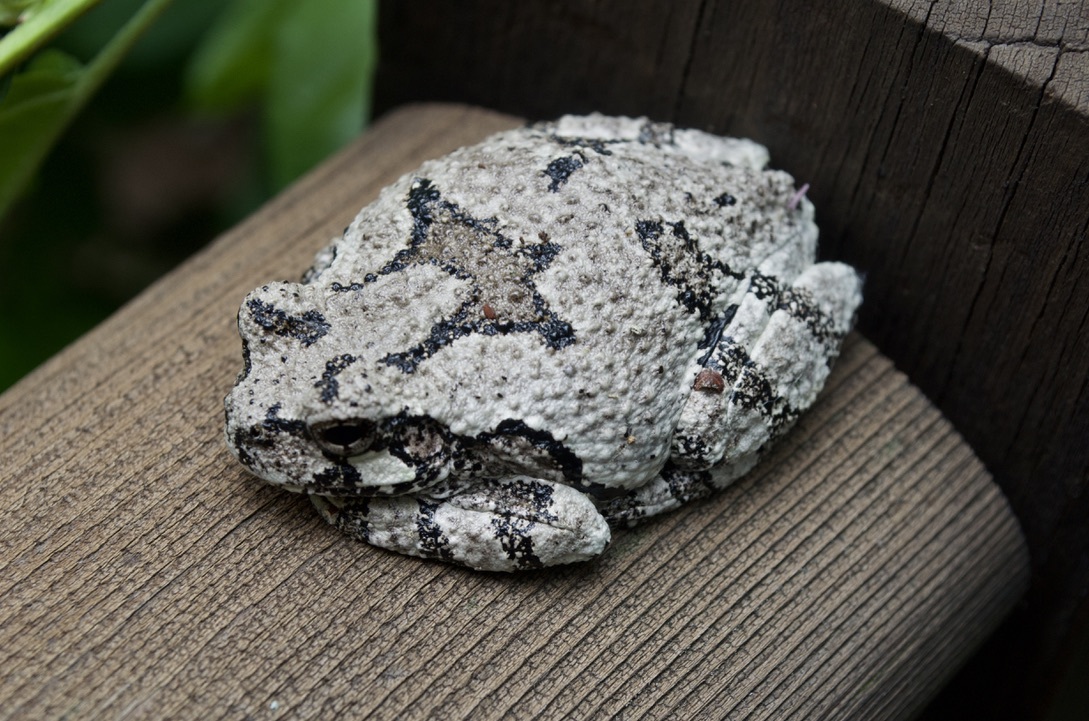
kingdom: Animalia
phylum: Chordata
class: Amphibia
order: Anura
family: Hylidae
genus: Dryophytes
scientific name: Dryophytes versicolor
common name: Gray treefrog
